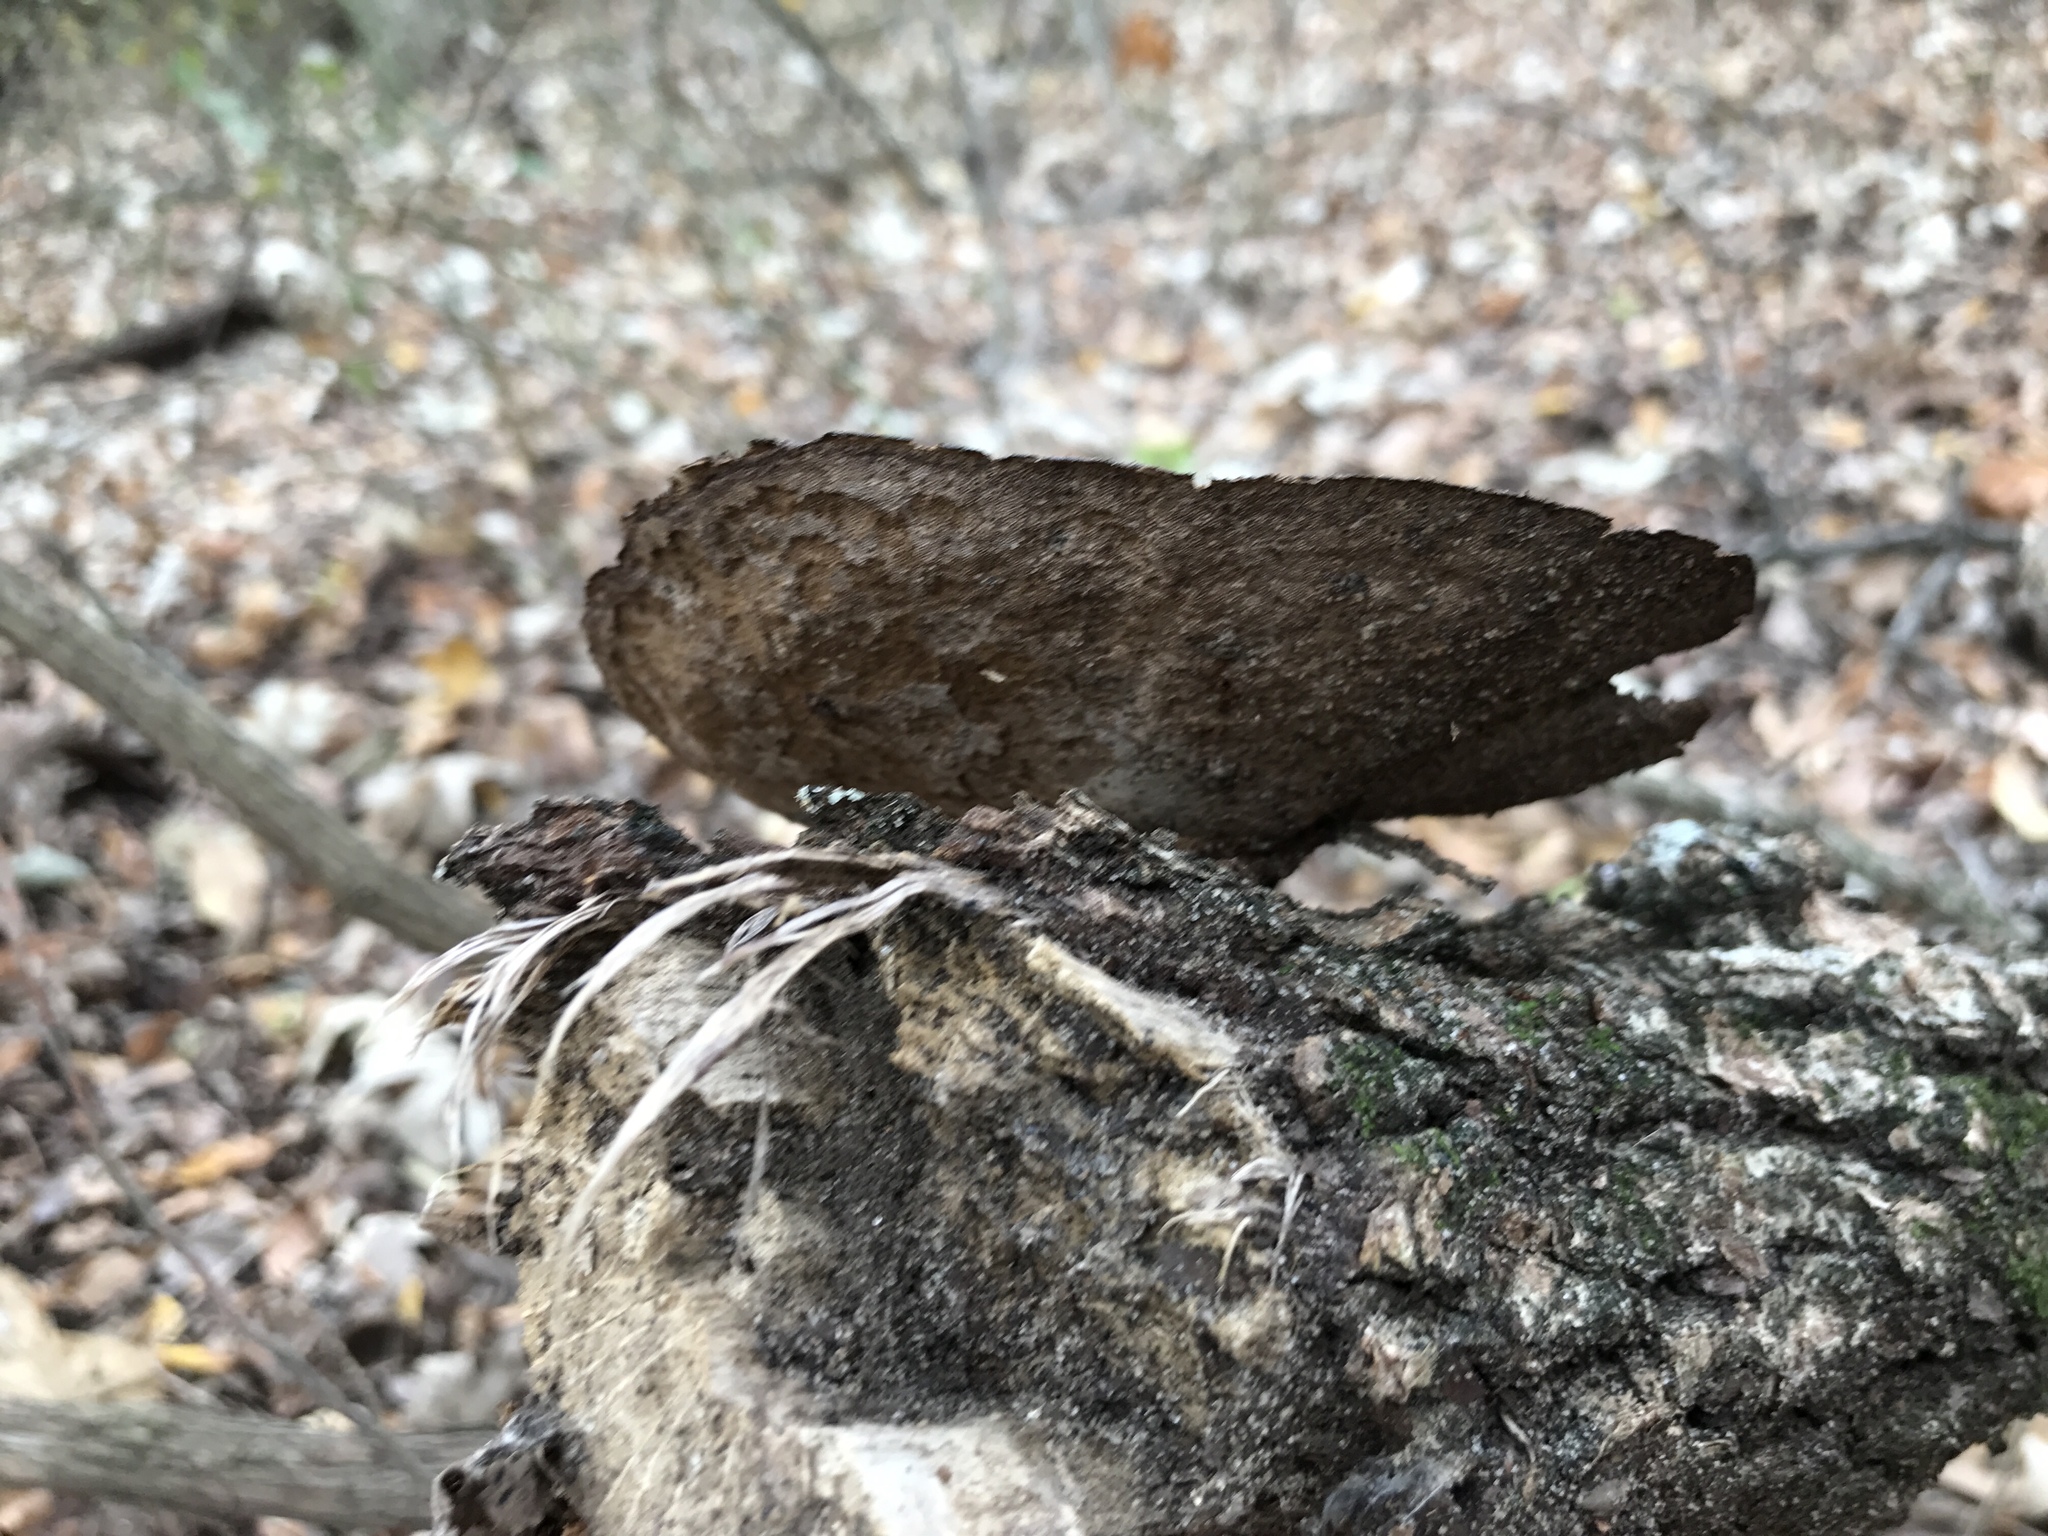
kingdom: Fungi
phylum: Basidiomycota
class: Agaricomycetes
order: Polyporales
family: Cerrenaceae
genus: Cerrena
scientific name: Cerrena hydnoides
